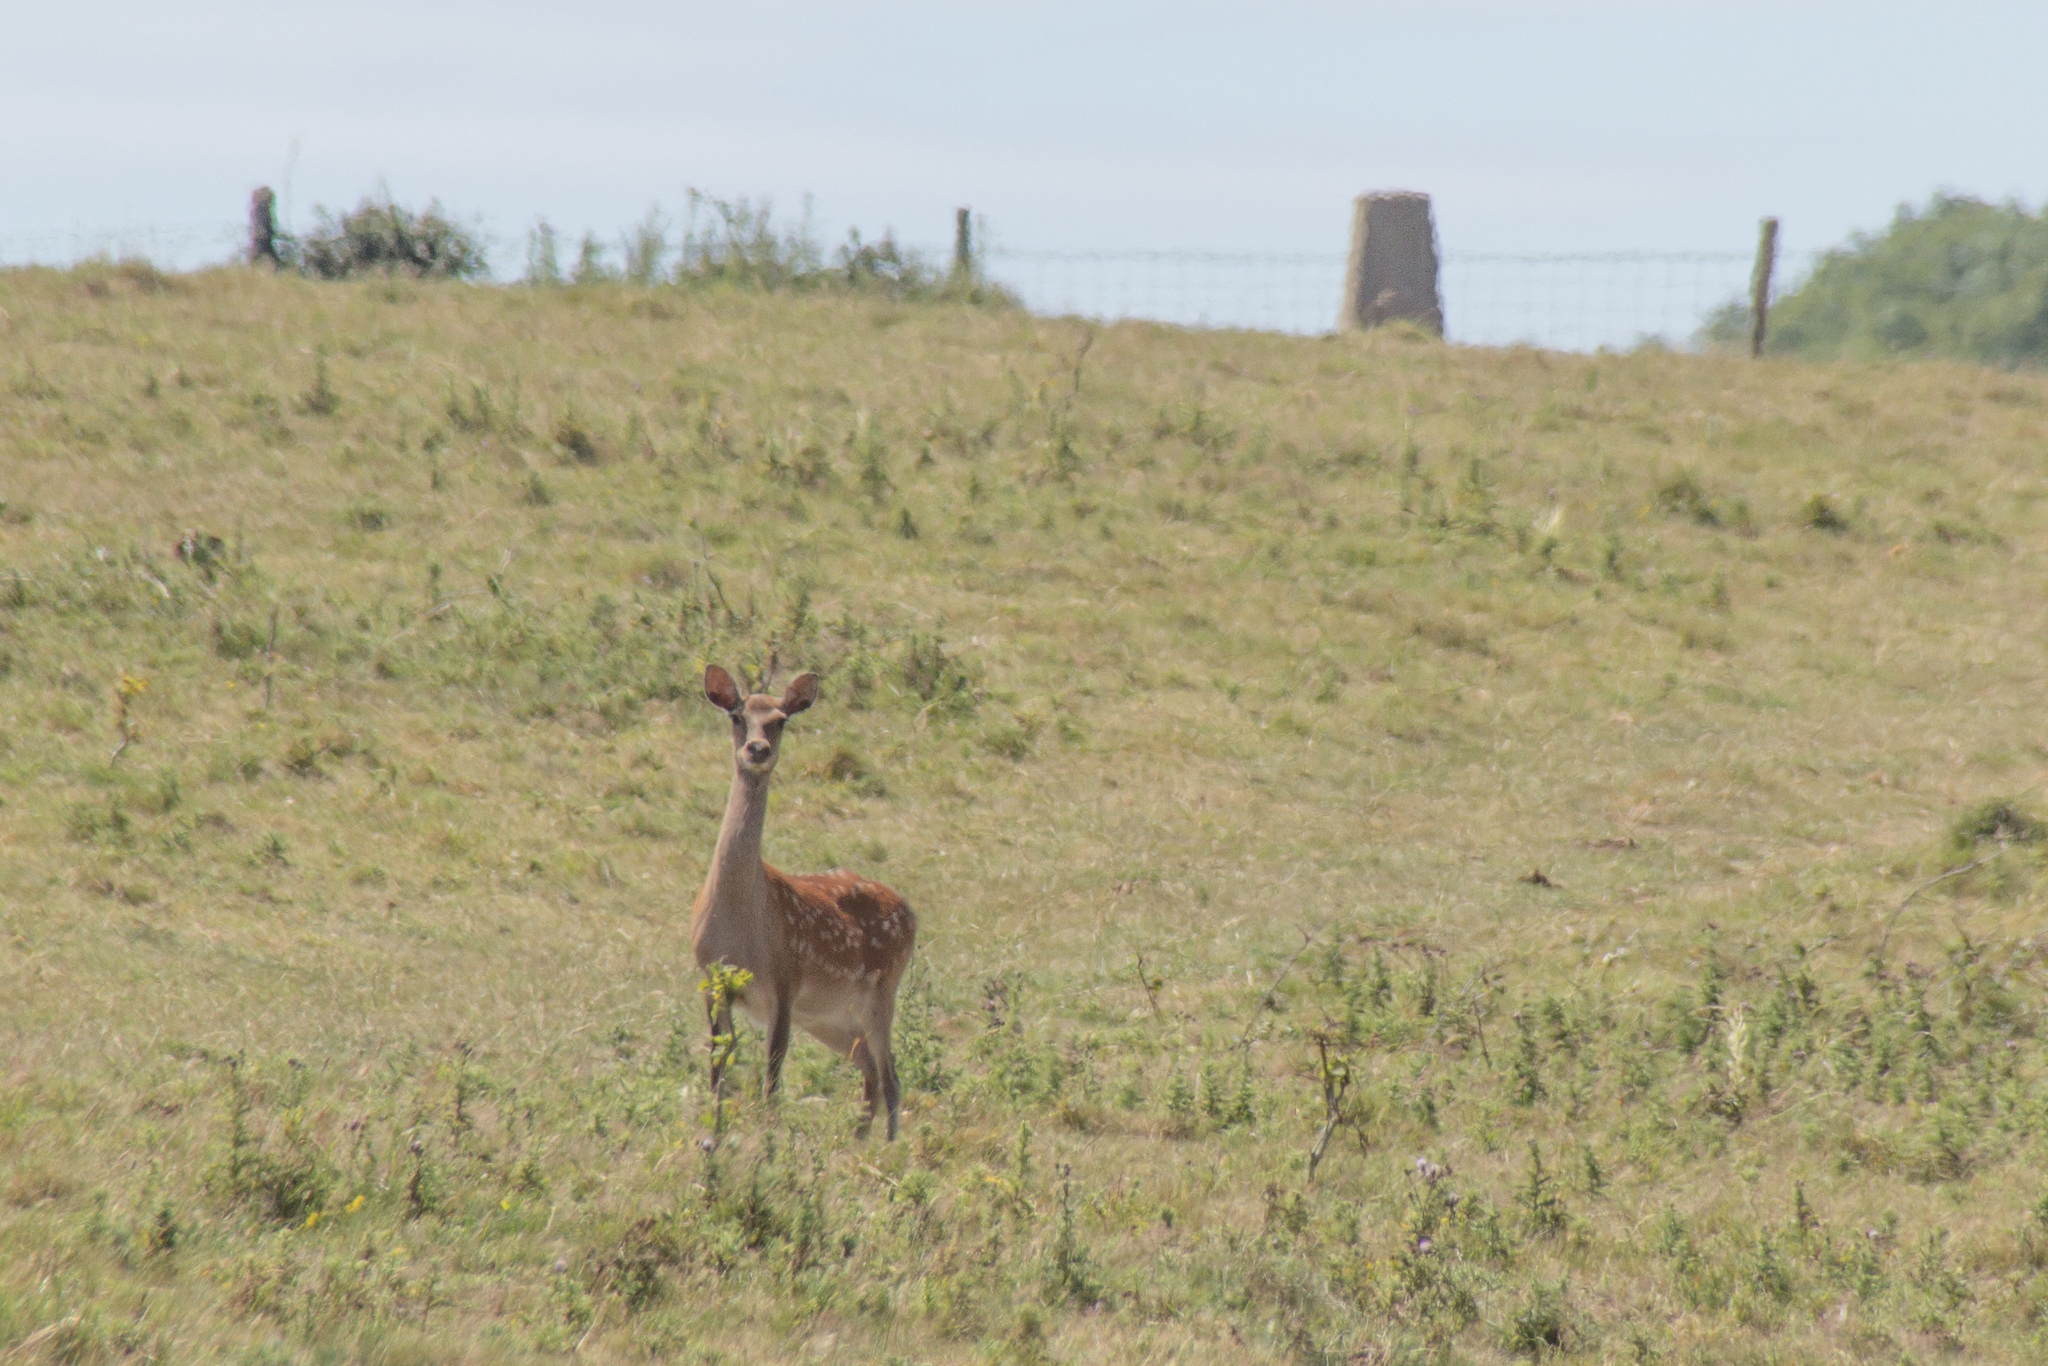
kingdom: Animalia
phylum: Chordata
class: Mammalia
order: Artiodactyla
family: Cervidae
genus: Dama
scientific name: Dama dama
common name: Fallow deer
